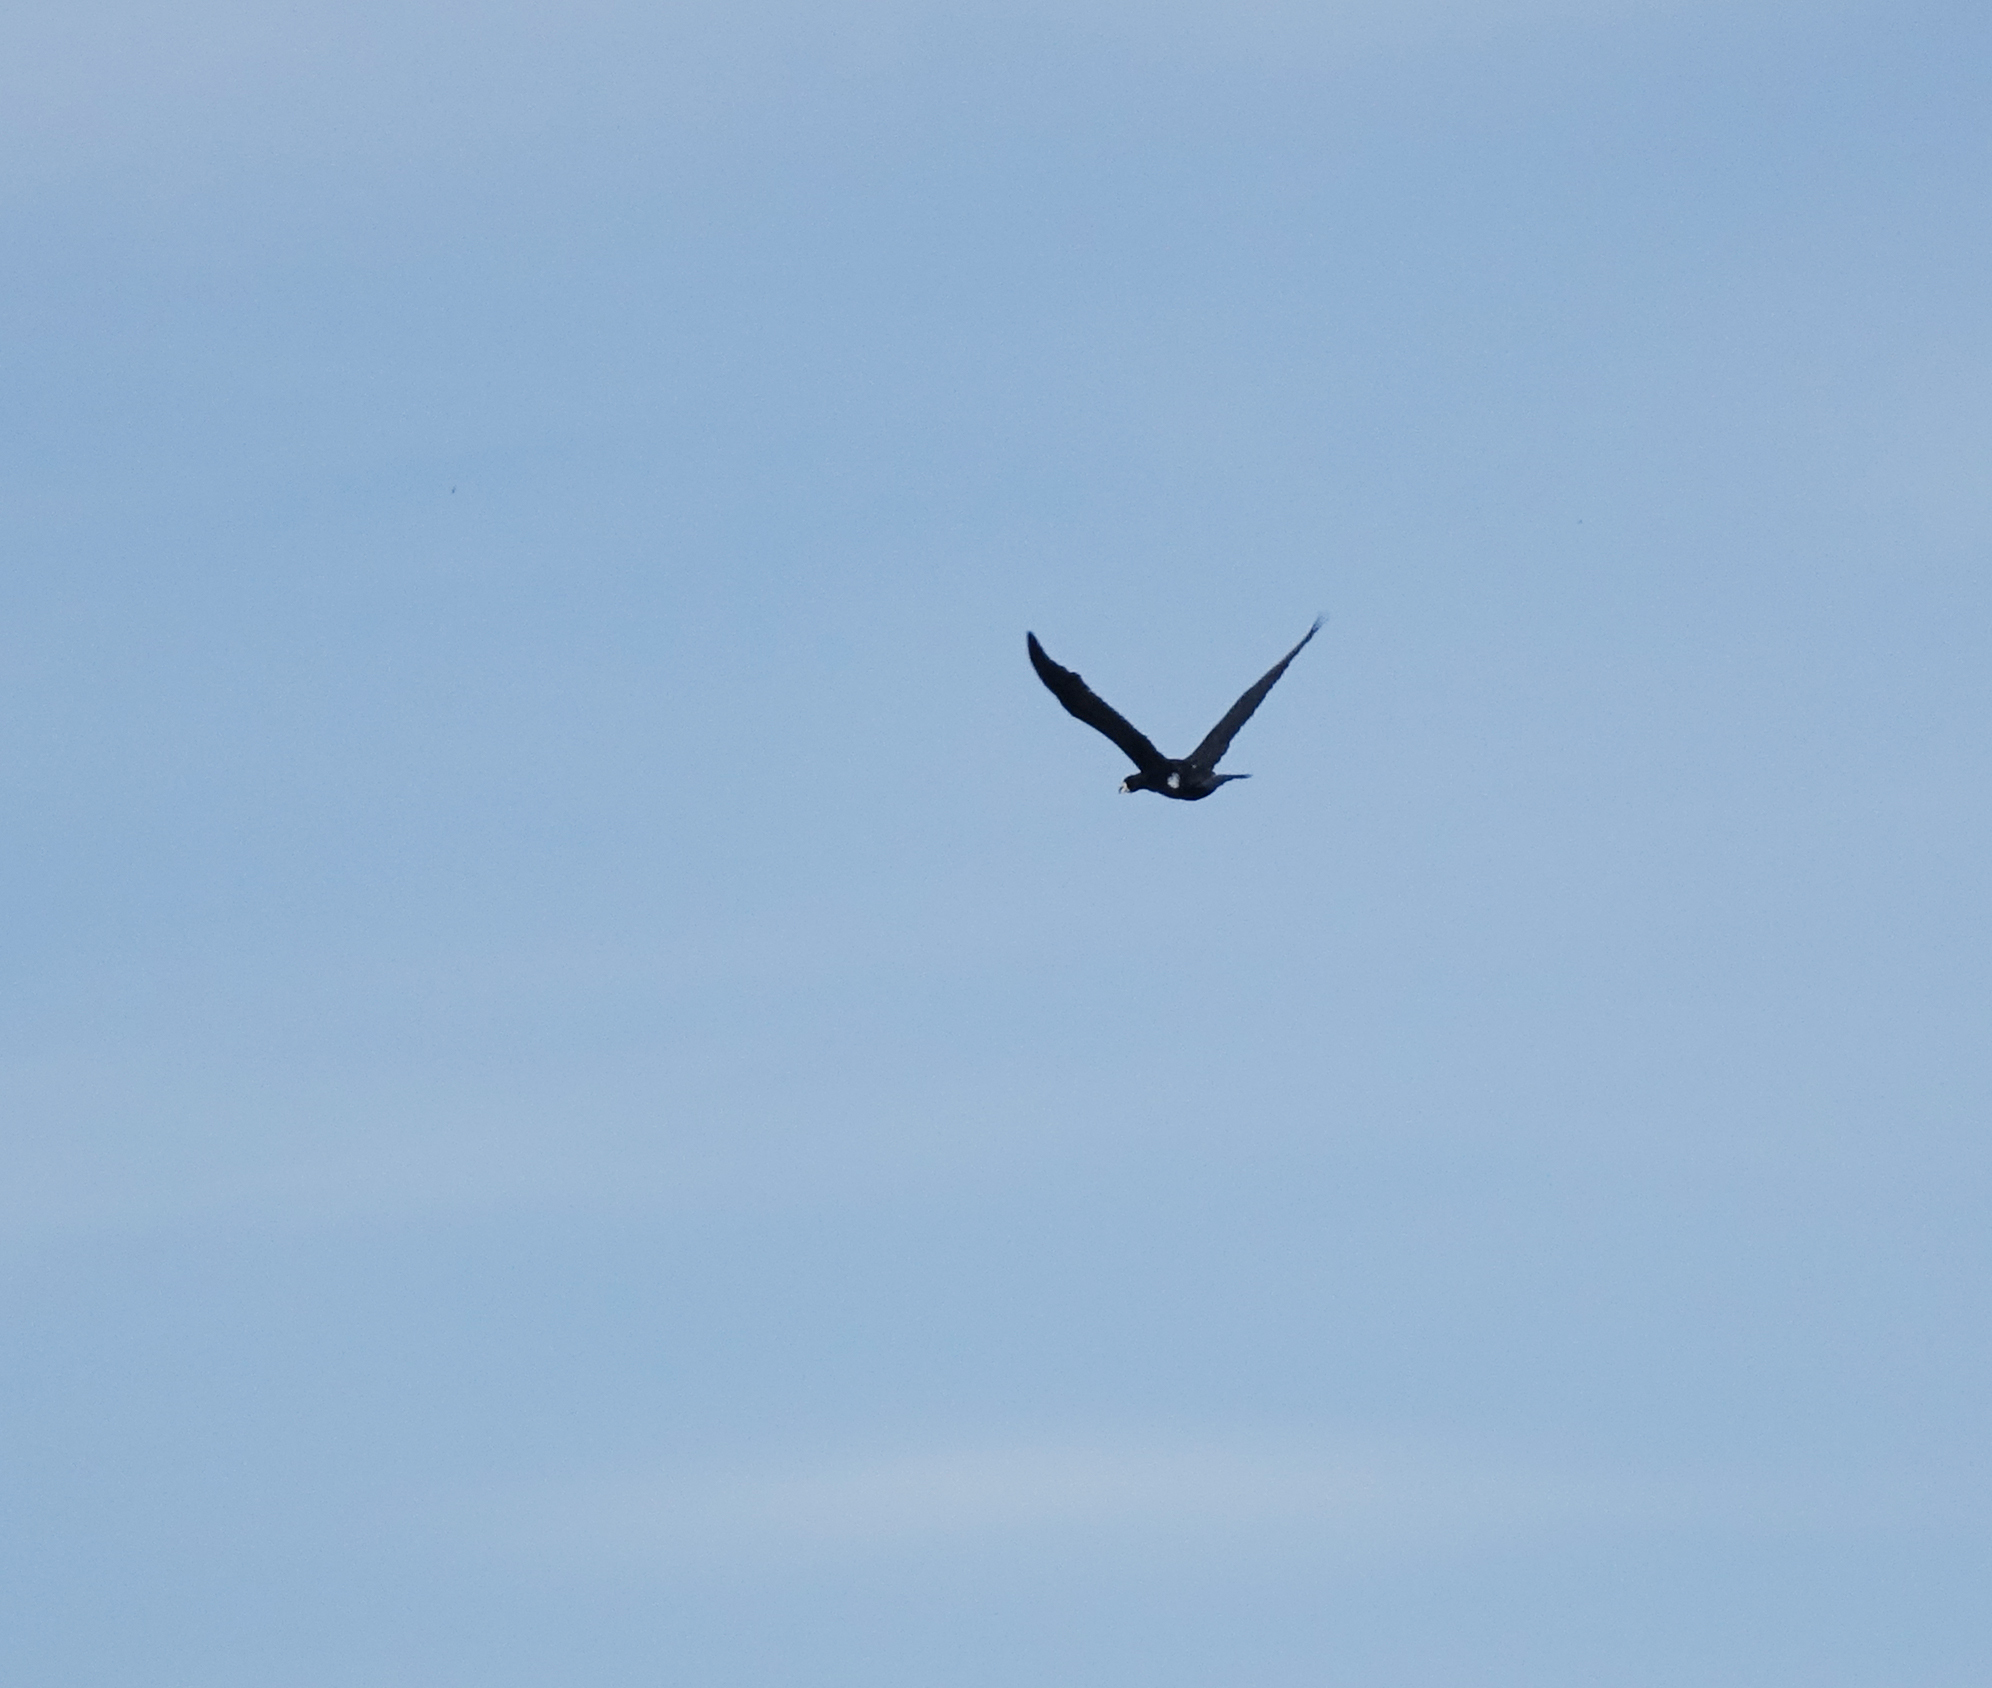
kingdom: Animalia
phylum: Chordata
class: Aves
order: Suliformes
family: Phalacrocoracidae
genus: Phalacrocorax
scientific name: Phalacrocorax carbo
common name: Great cormorant
